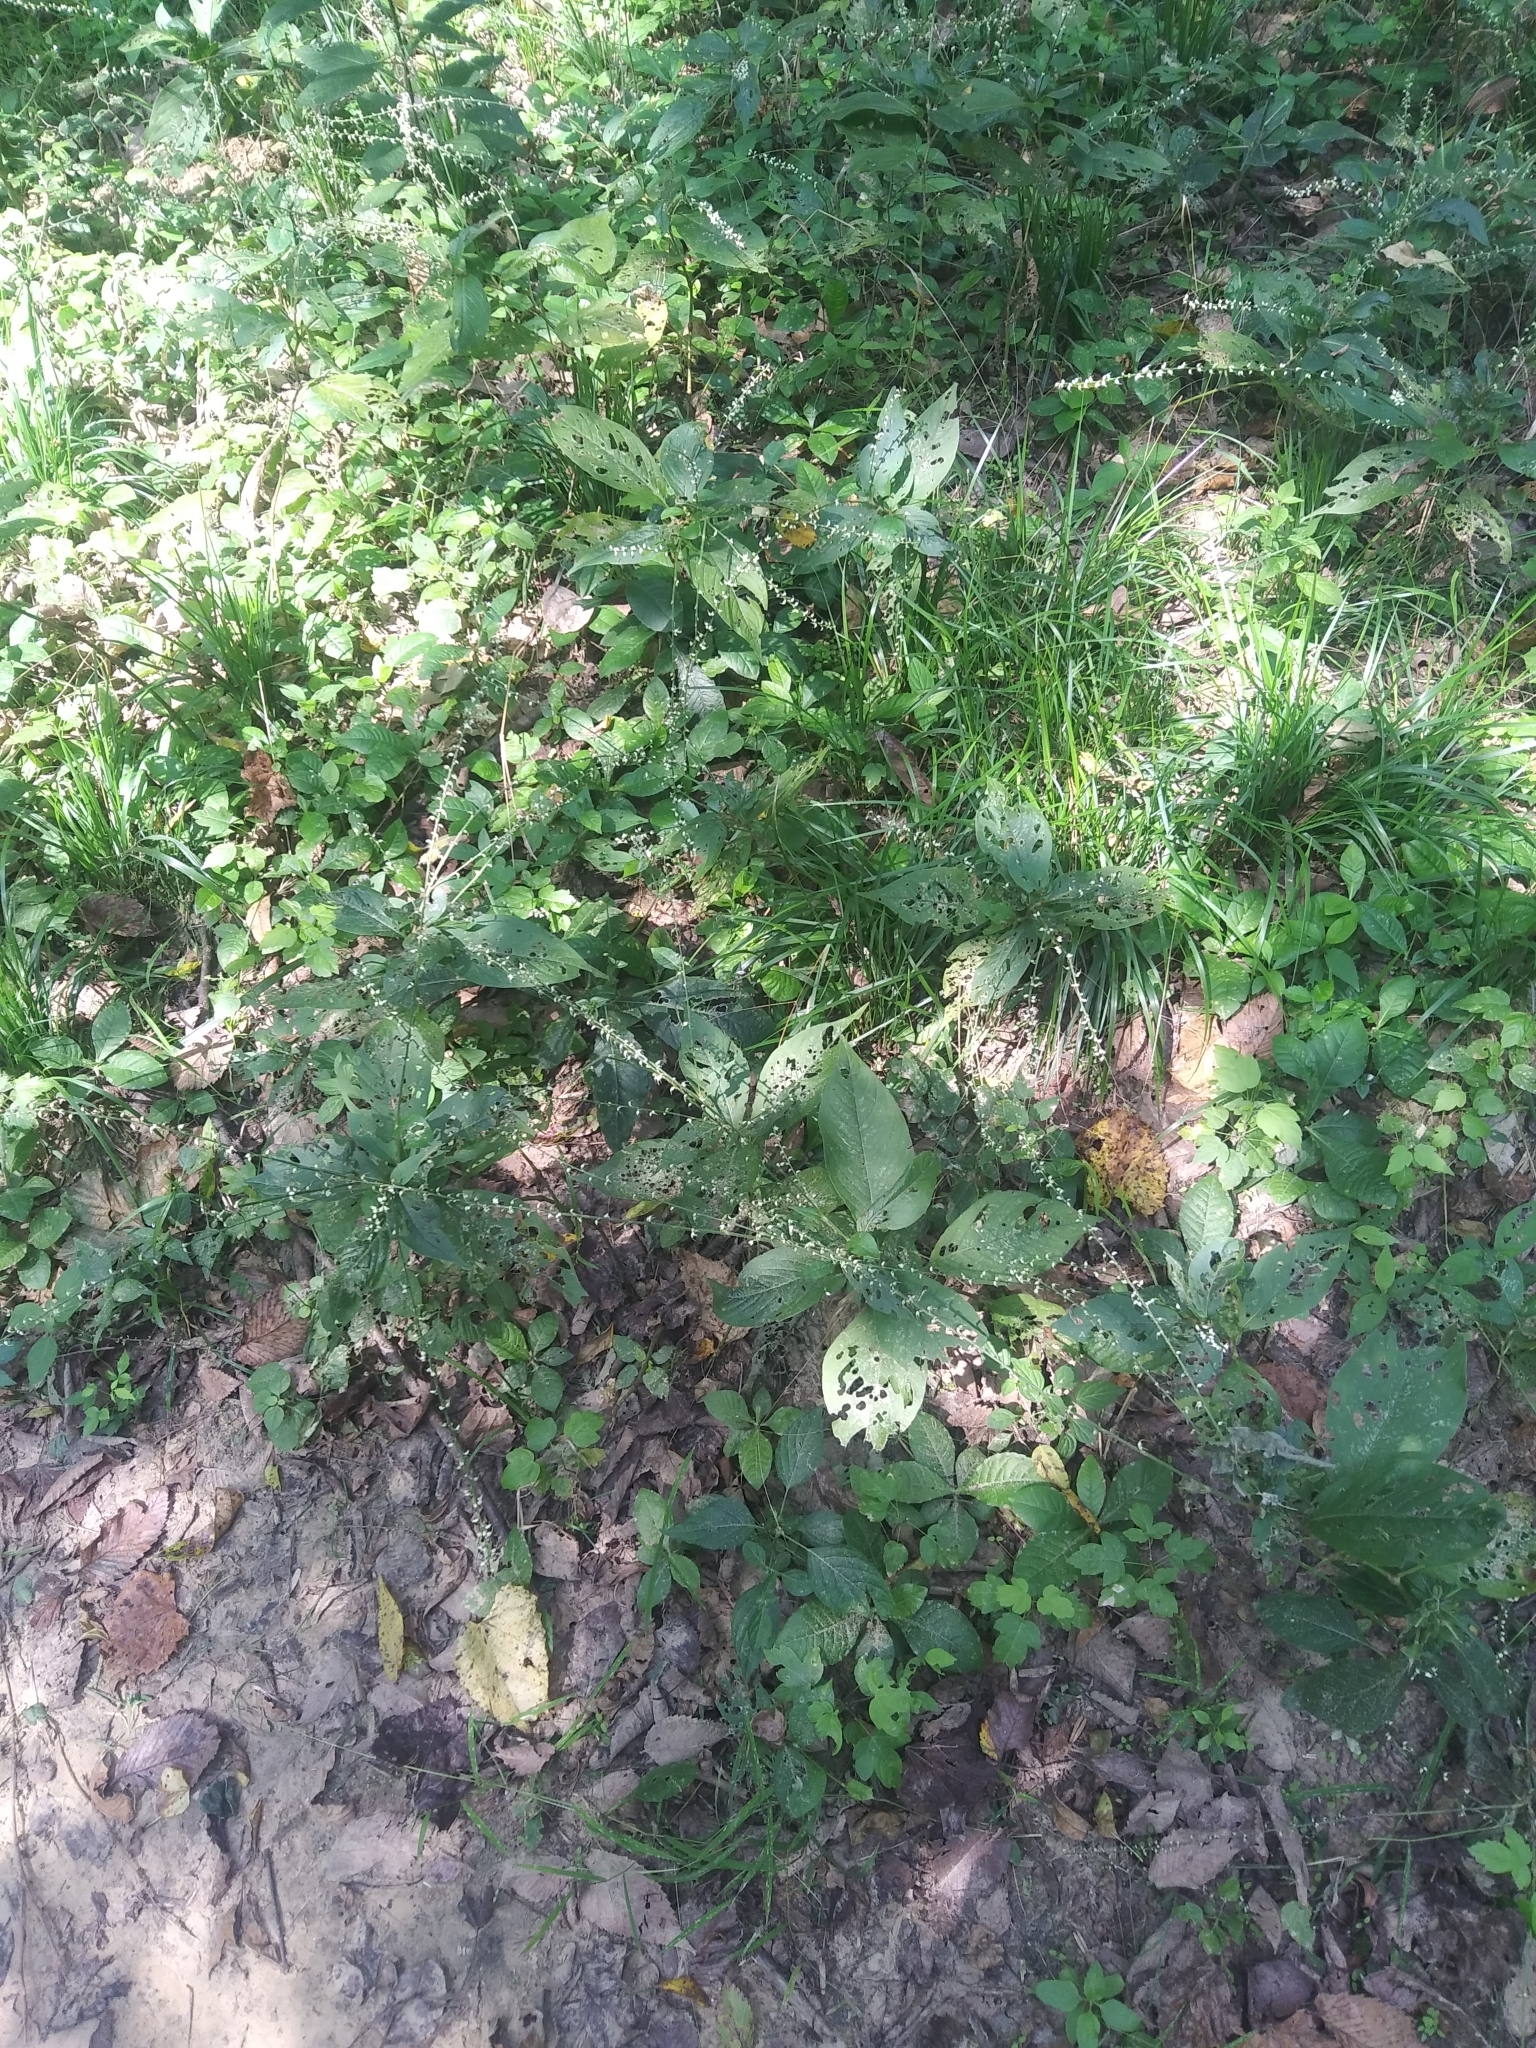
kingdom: Plantae
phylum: Tracheophyta
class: Magnoliopsida
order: Caryophyllales
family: Polygonaceae
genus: Persicaria
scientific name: Persicaria virginiana
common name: Jumpseed
